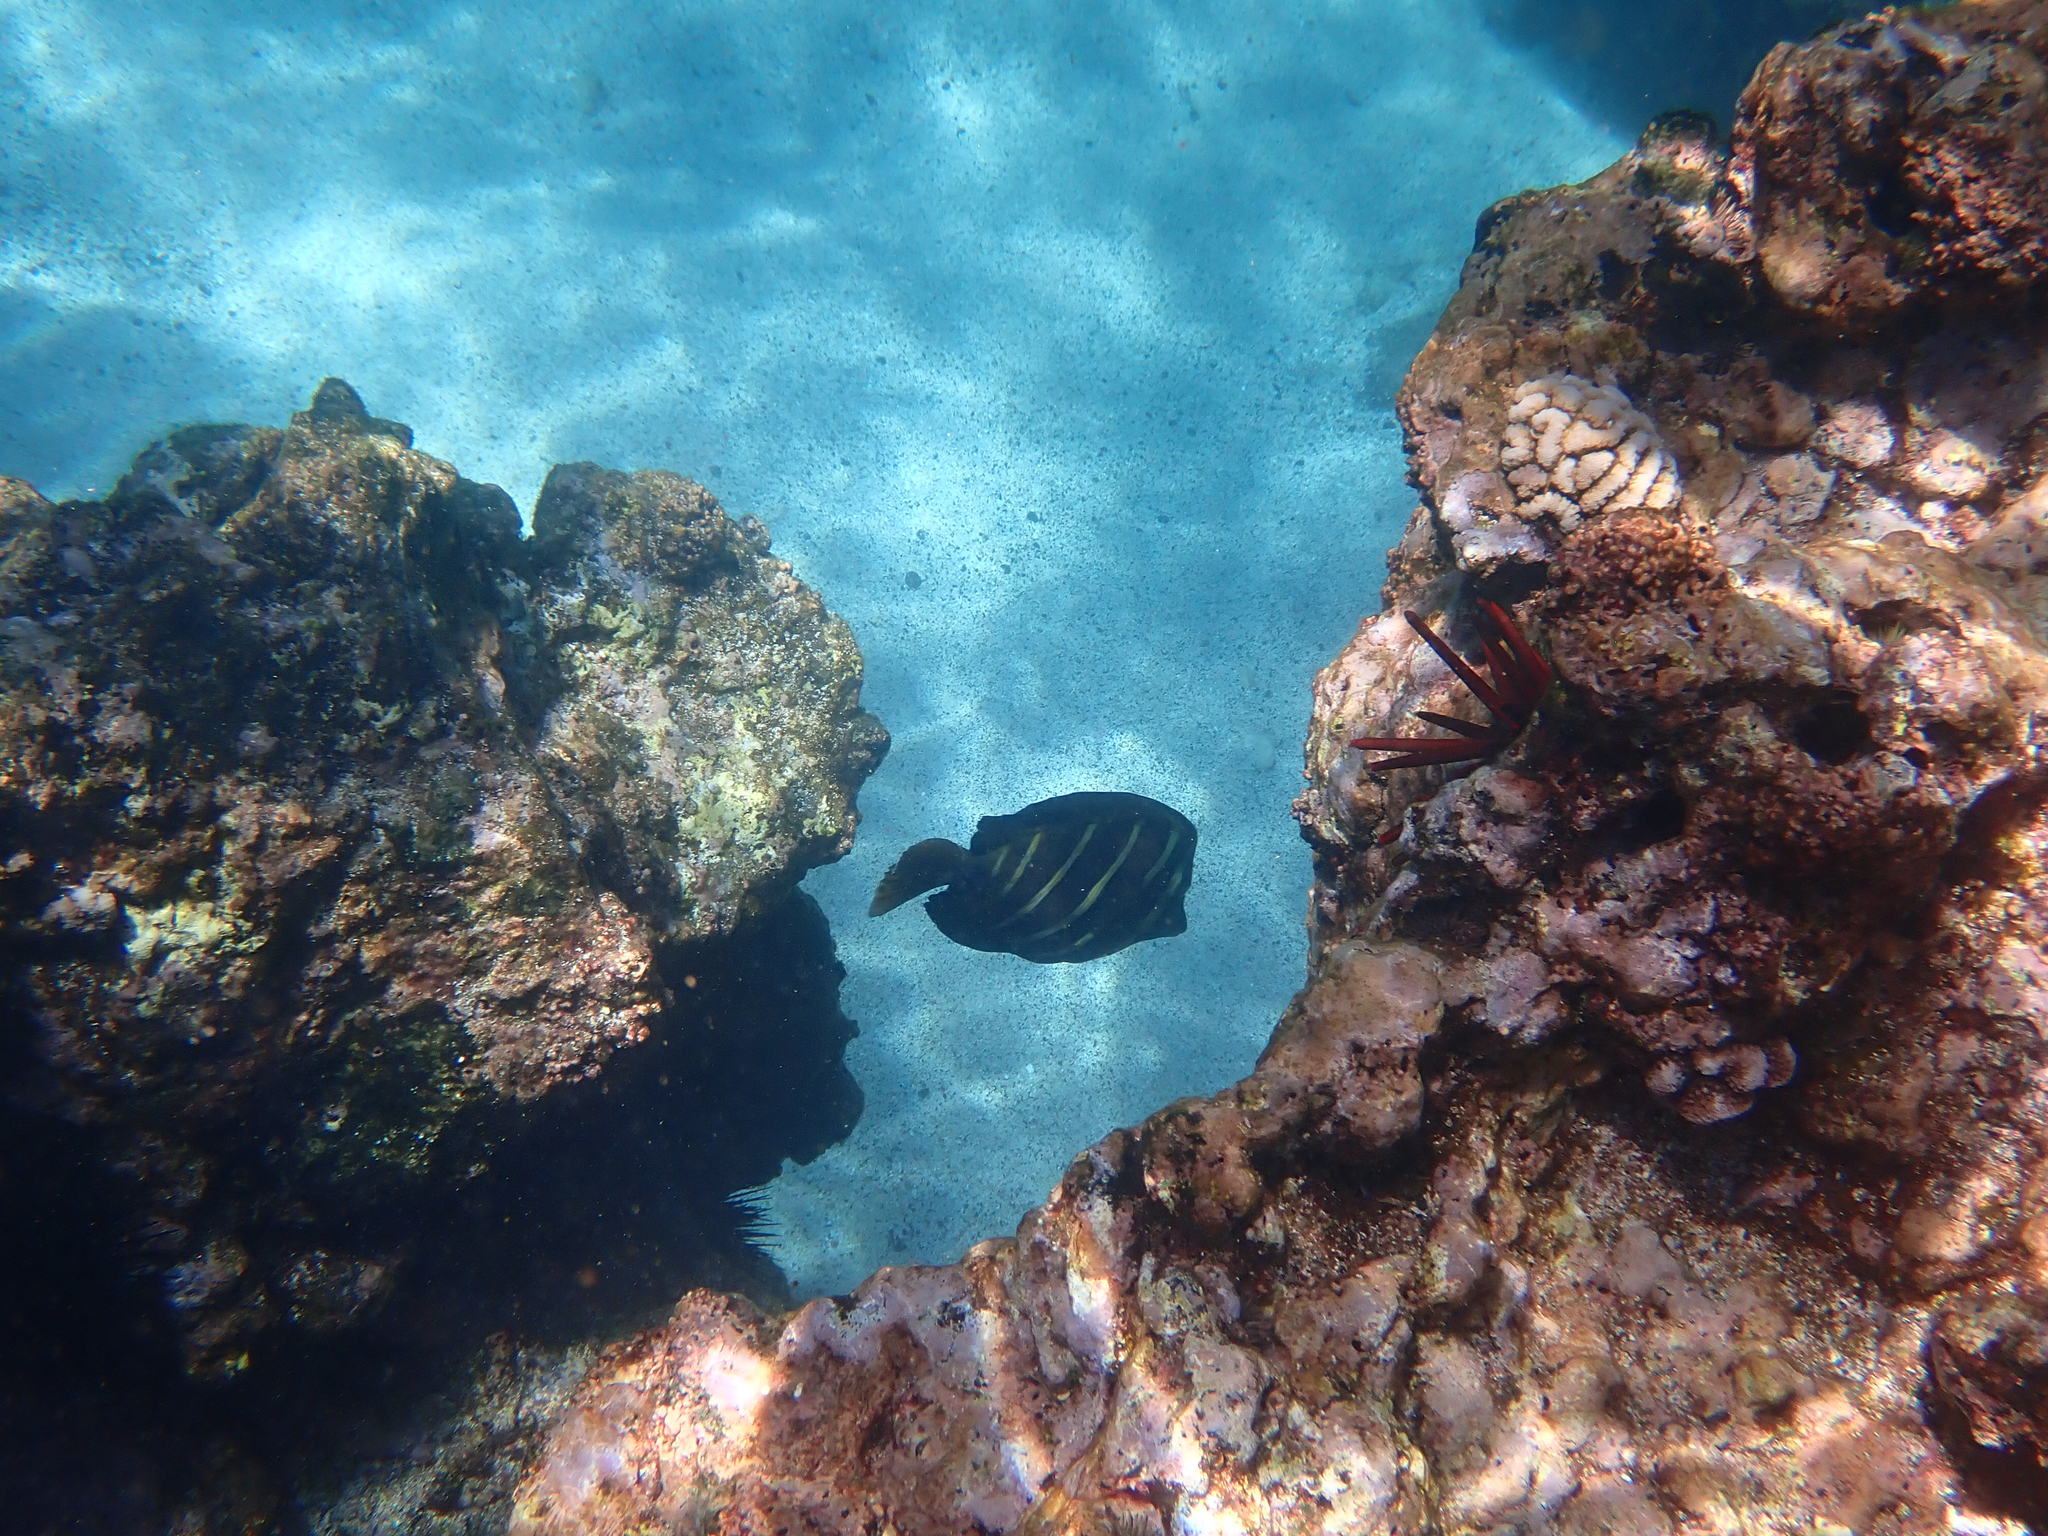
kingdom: Animalia
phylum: Chordata
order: Perciformes
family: Acanthuridae
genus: Zebrasoma
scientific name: Zebrasoma veliferum
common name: Sailfin surgeonfish
